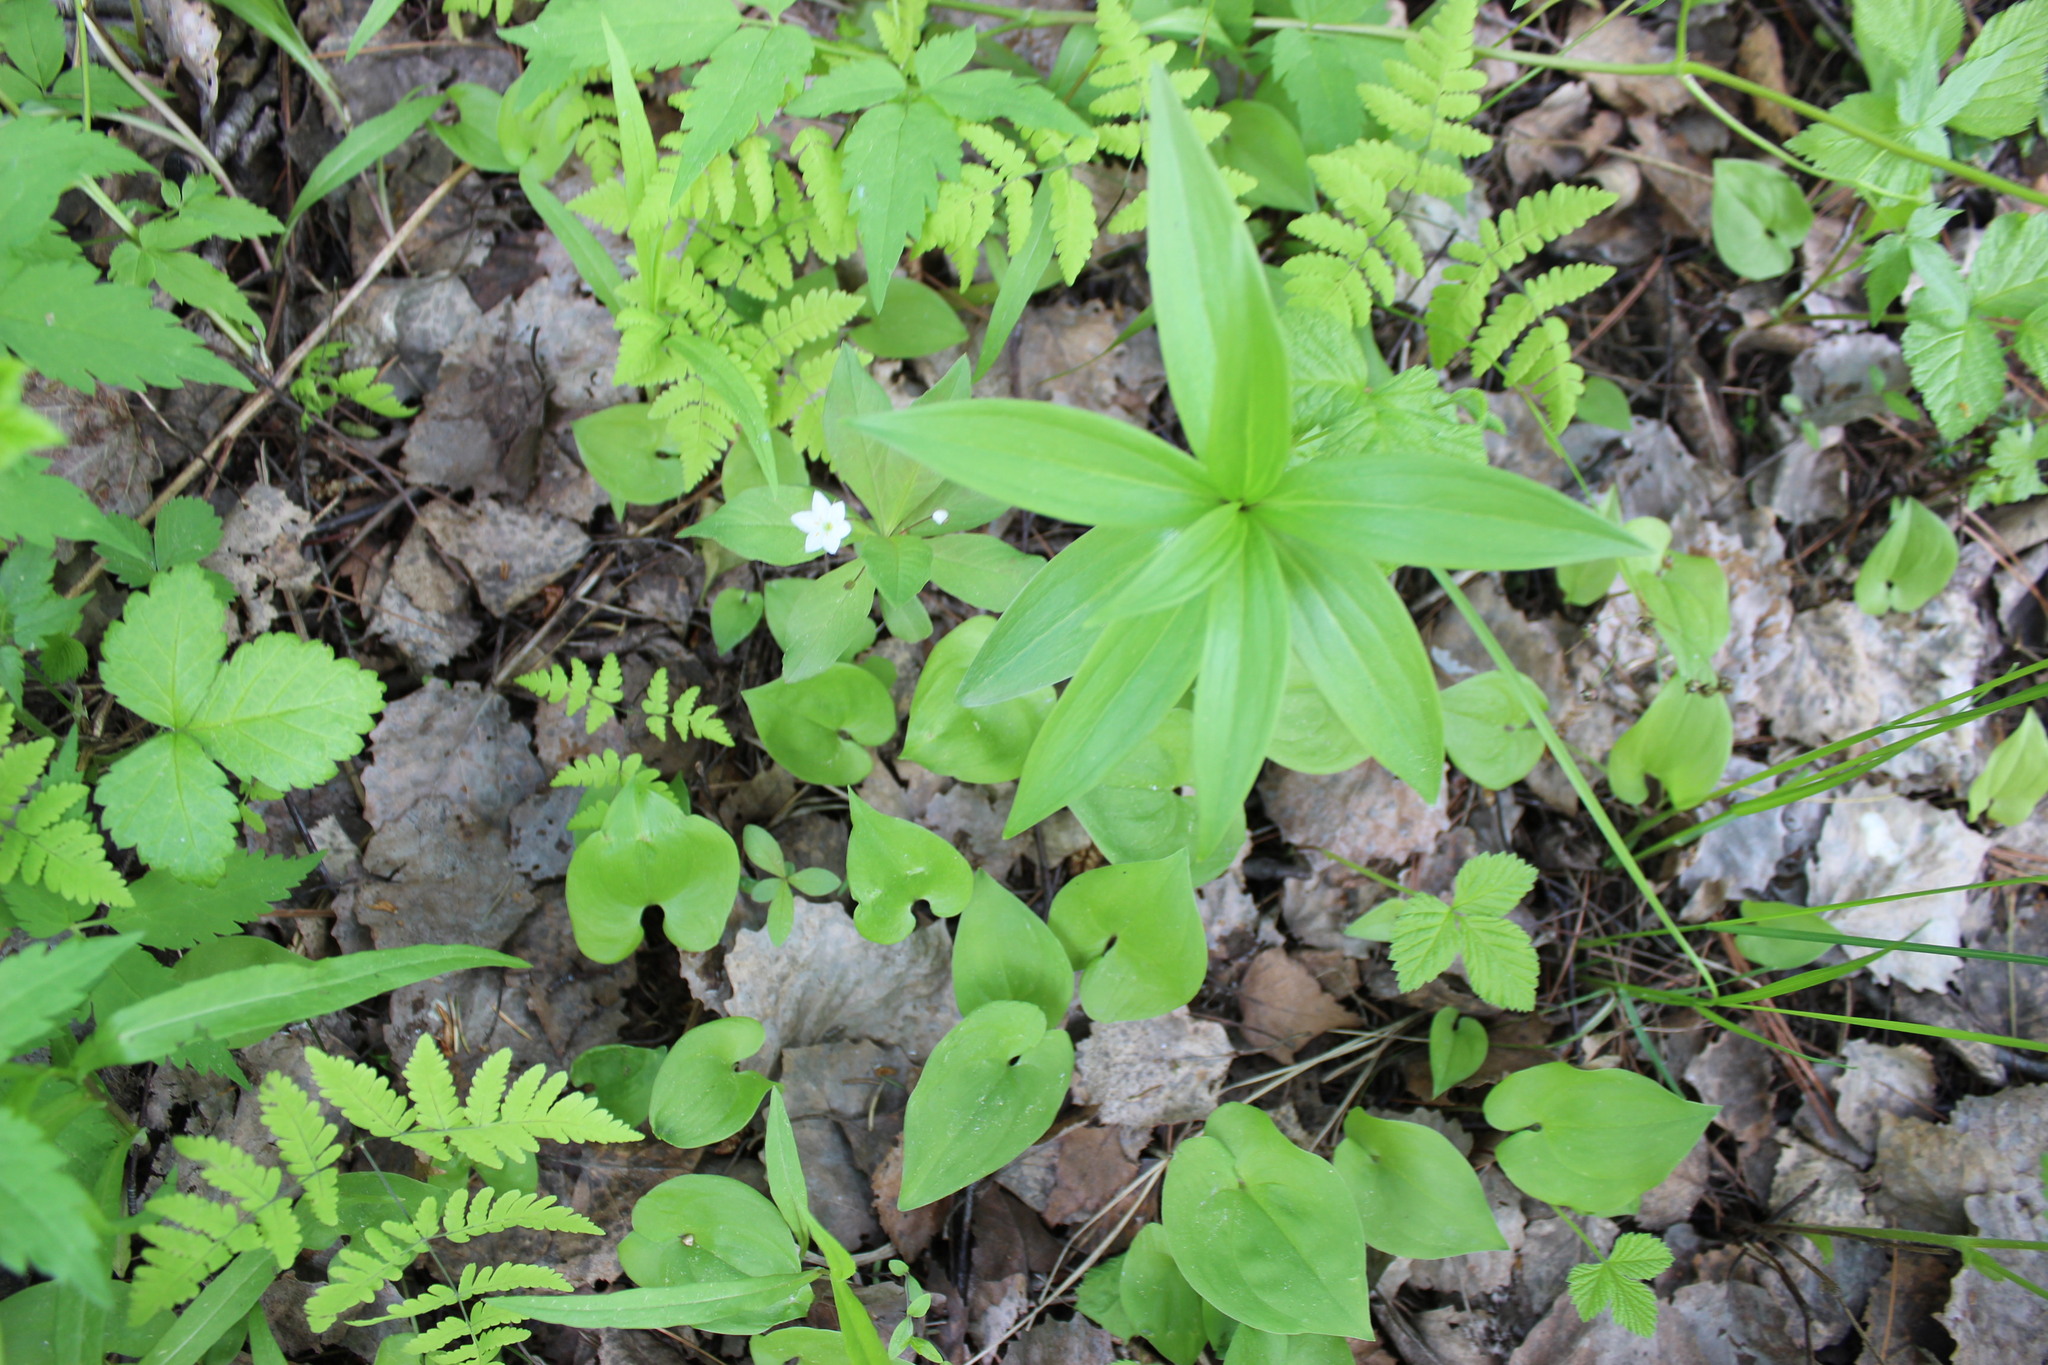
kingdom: Plantae
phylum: Tracheophyta
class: Liliopsida
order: Liliales
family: Liliaceae
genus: Lilium
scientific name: Lilium martagon
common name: Martagon lily
